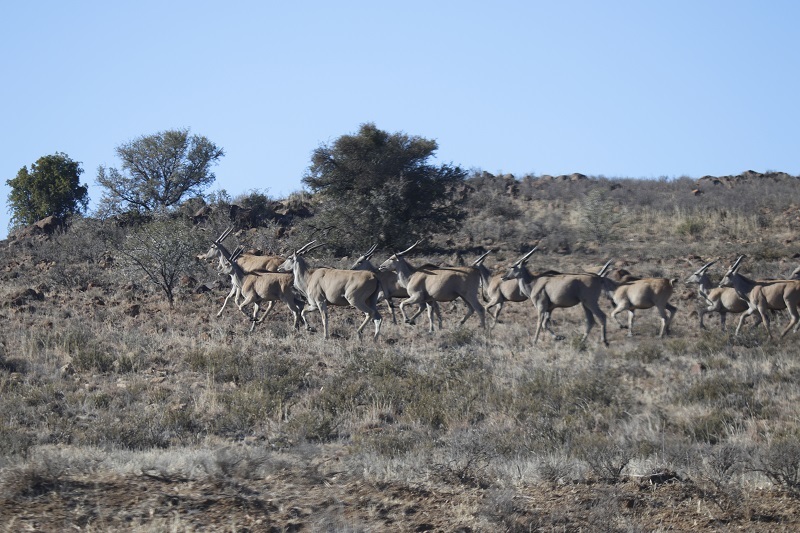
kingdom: Animalia
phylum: Chordata
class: Mammalia
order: Artiodactyla
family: Bovidae
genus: Taurotragus
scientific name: Taurotragus oryx
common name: Common eland
